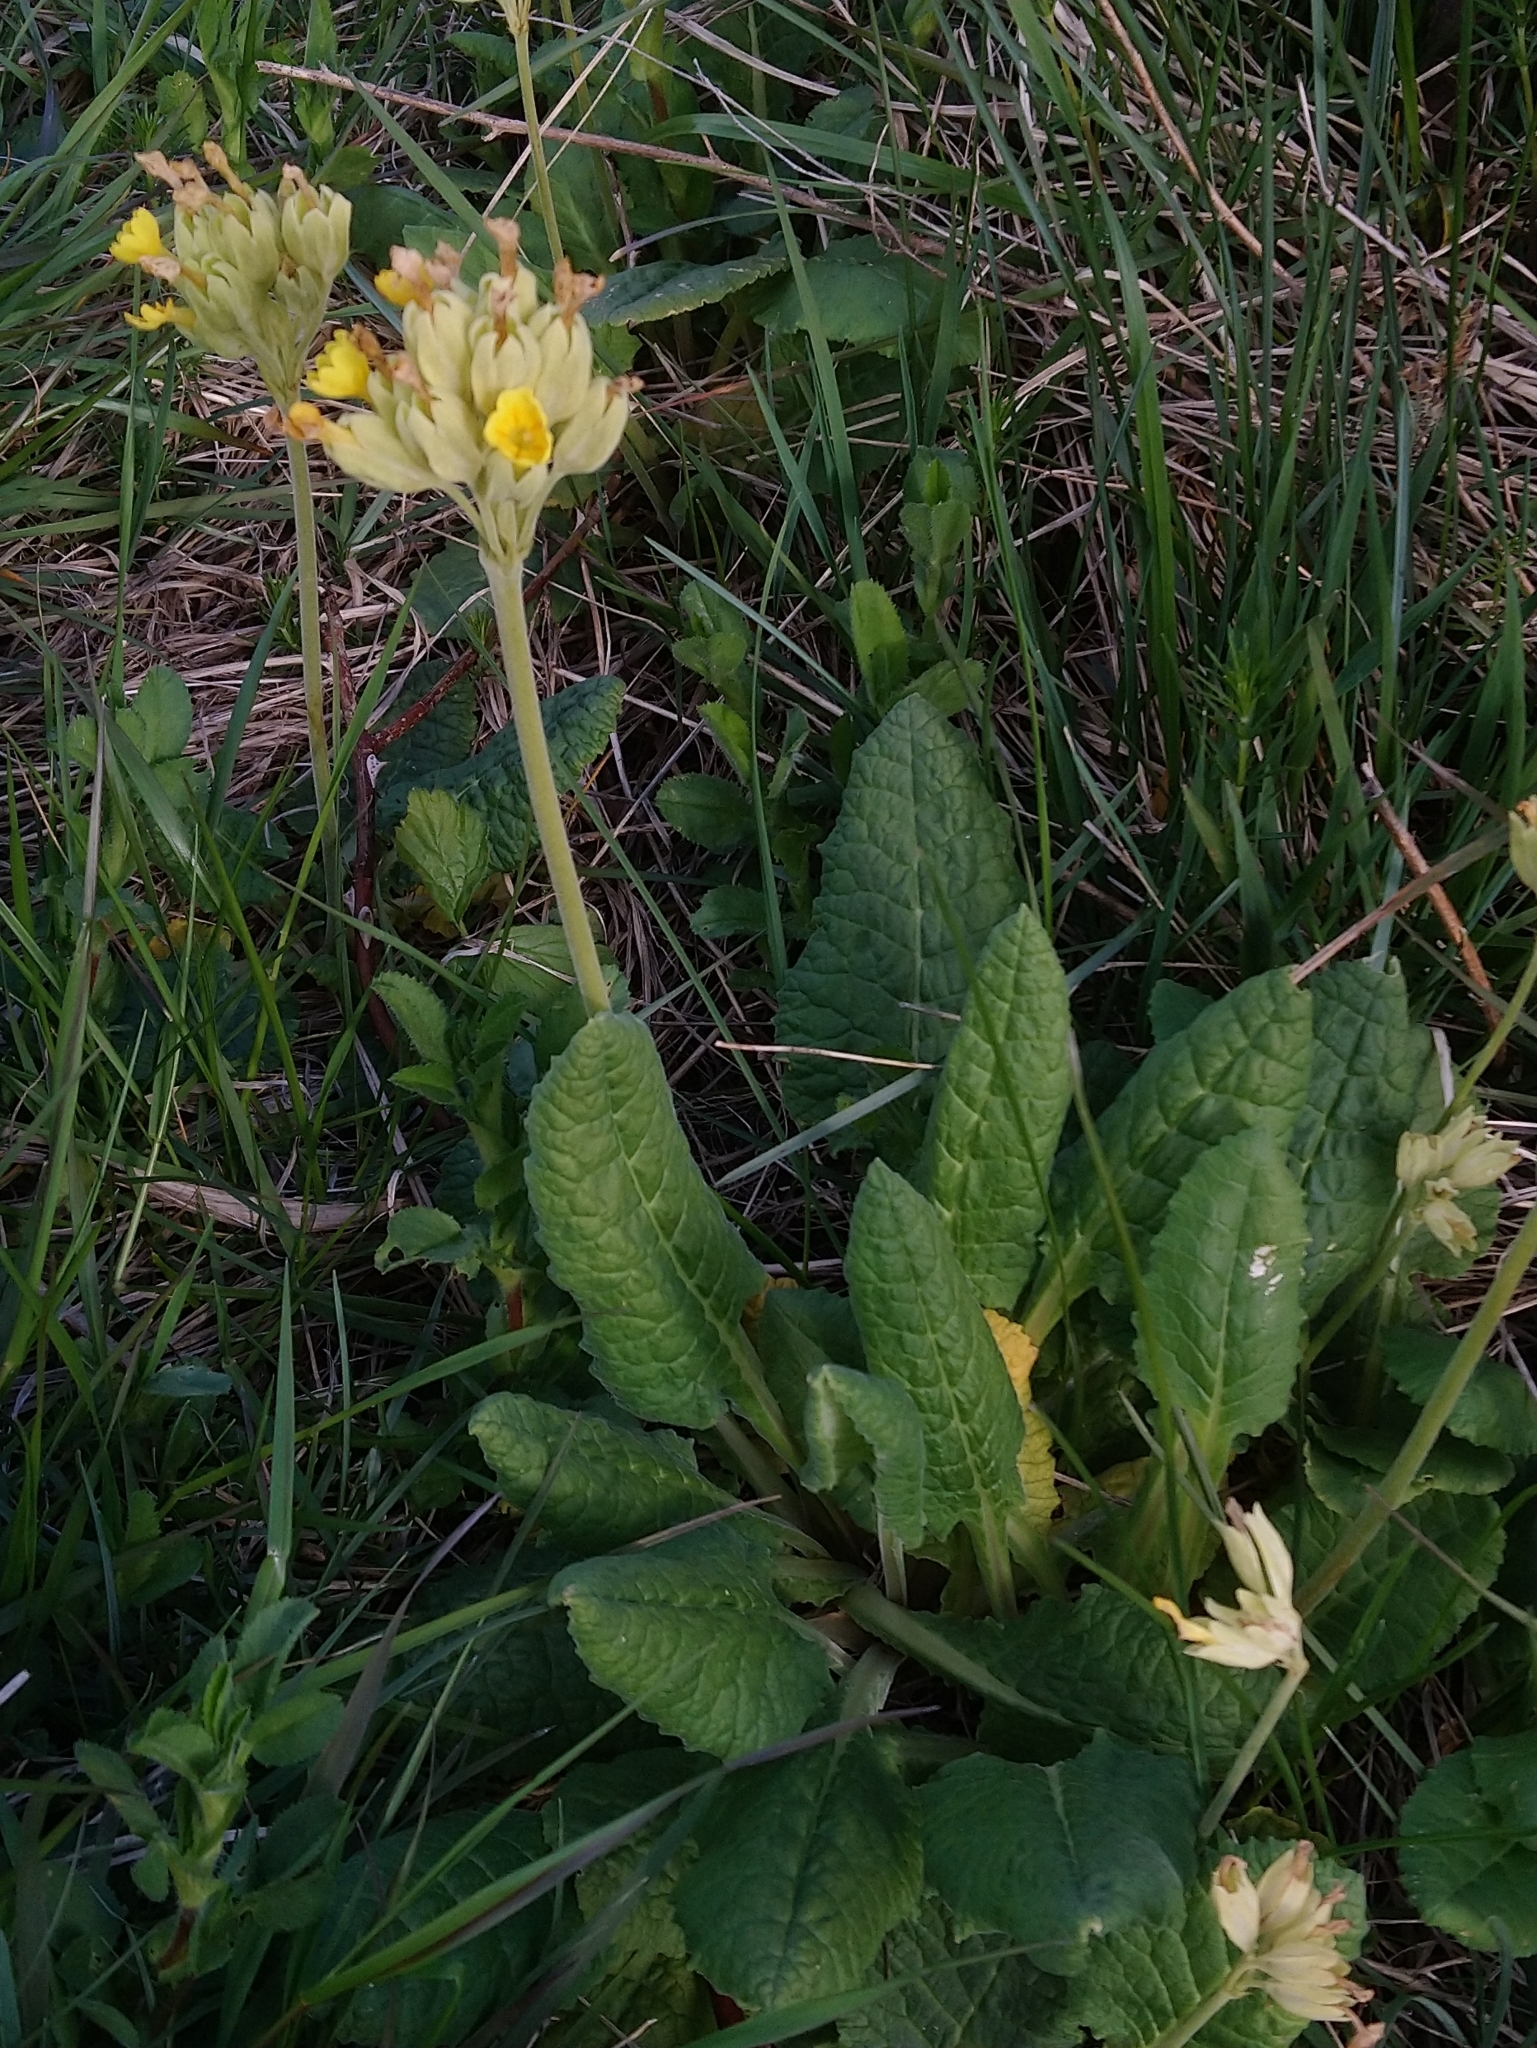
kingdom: Plantae
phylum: Tracheophyta
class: Magnoliopsida
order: Ericales
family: Primulaceae
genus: Primula
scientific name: Primula veris
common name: Cowslip
